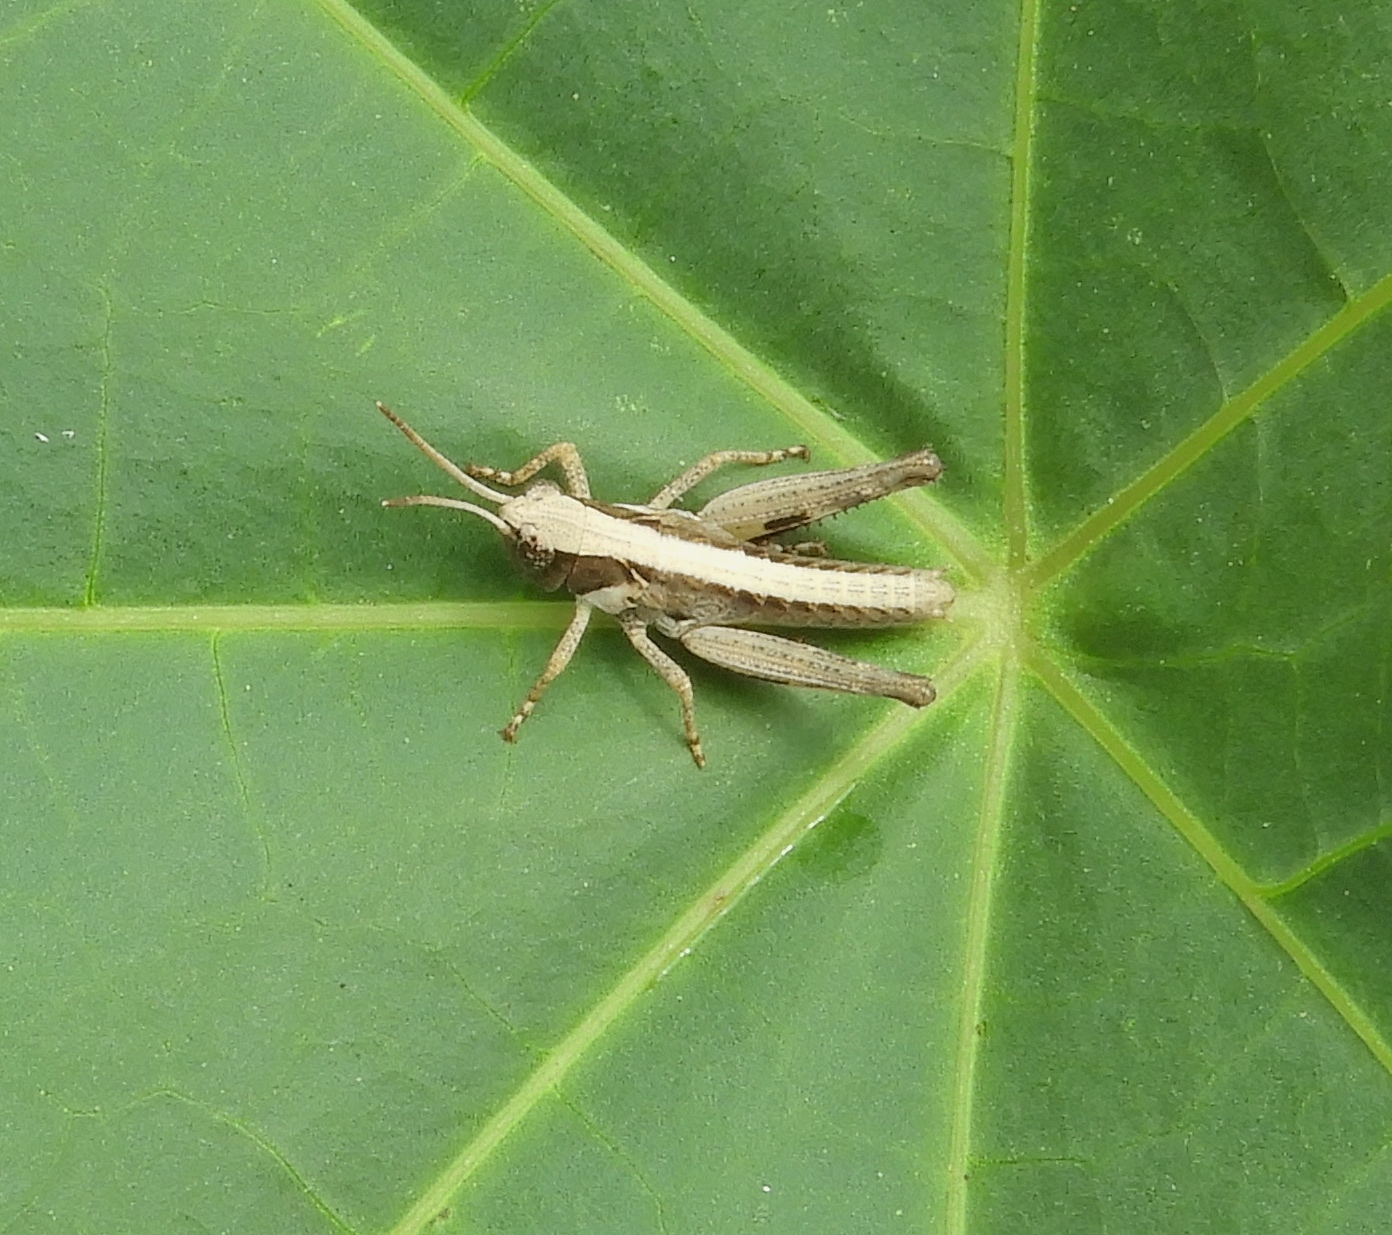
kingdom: Animalia
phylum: Arthropoda
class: Insecta
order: Orthoptera
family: Acrididae
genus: Boopedon
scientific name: Boopedon flaviventris
